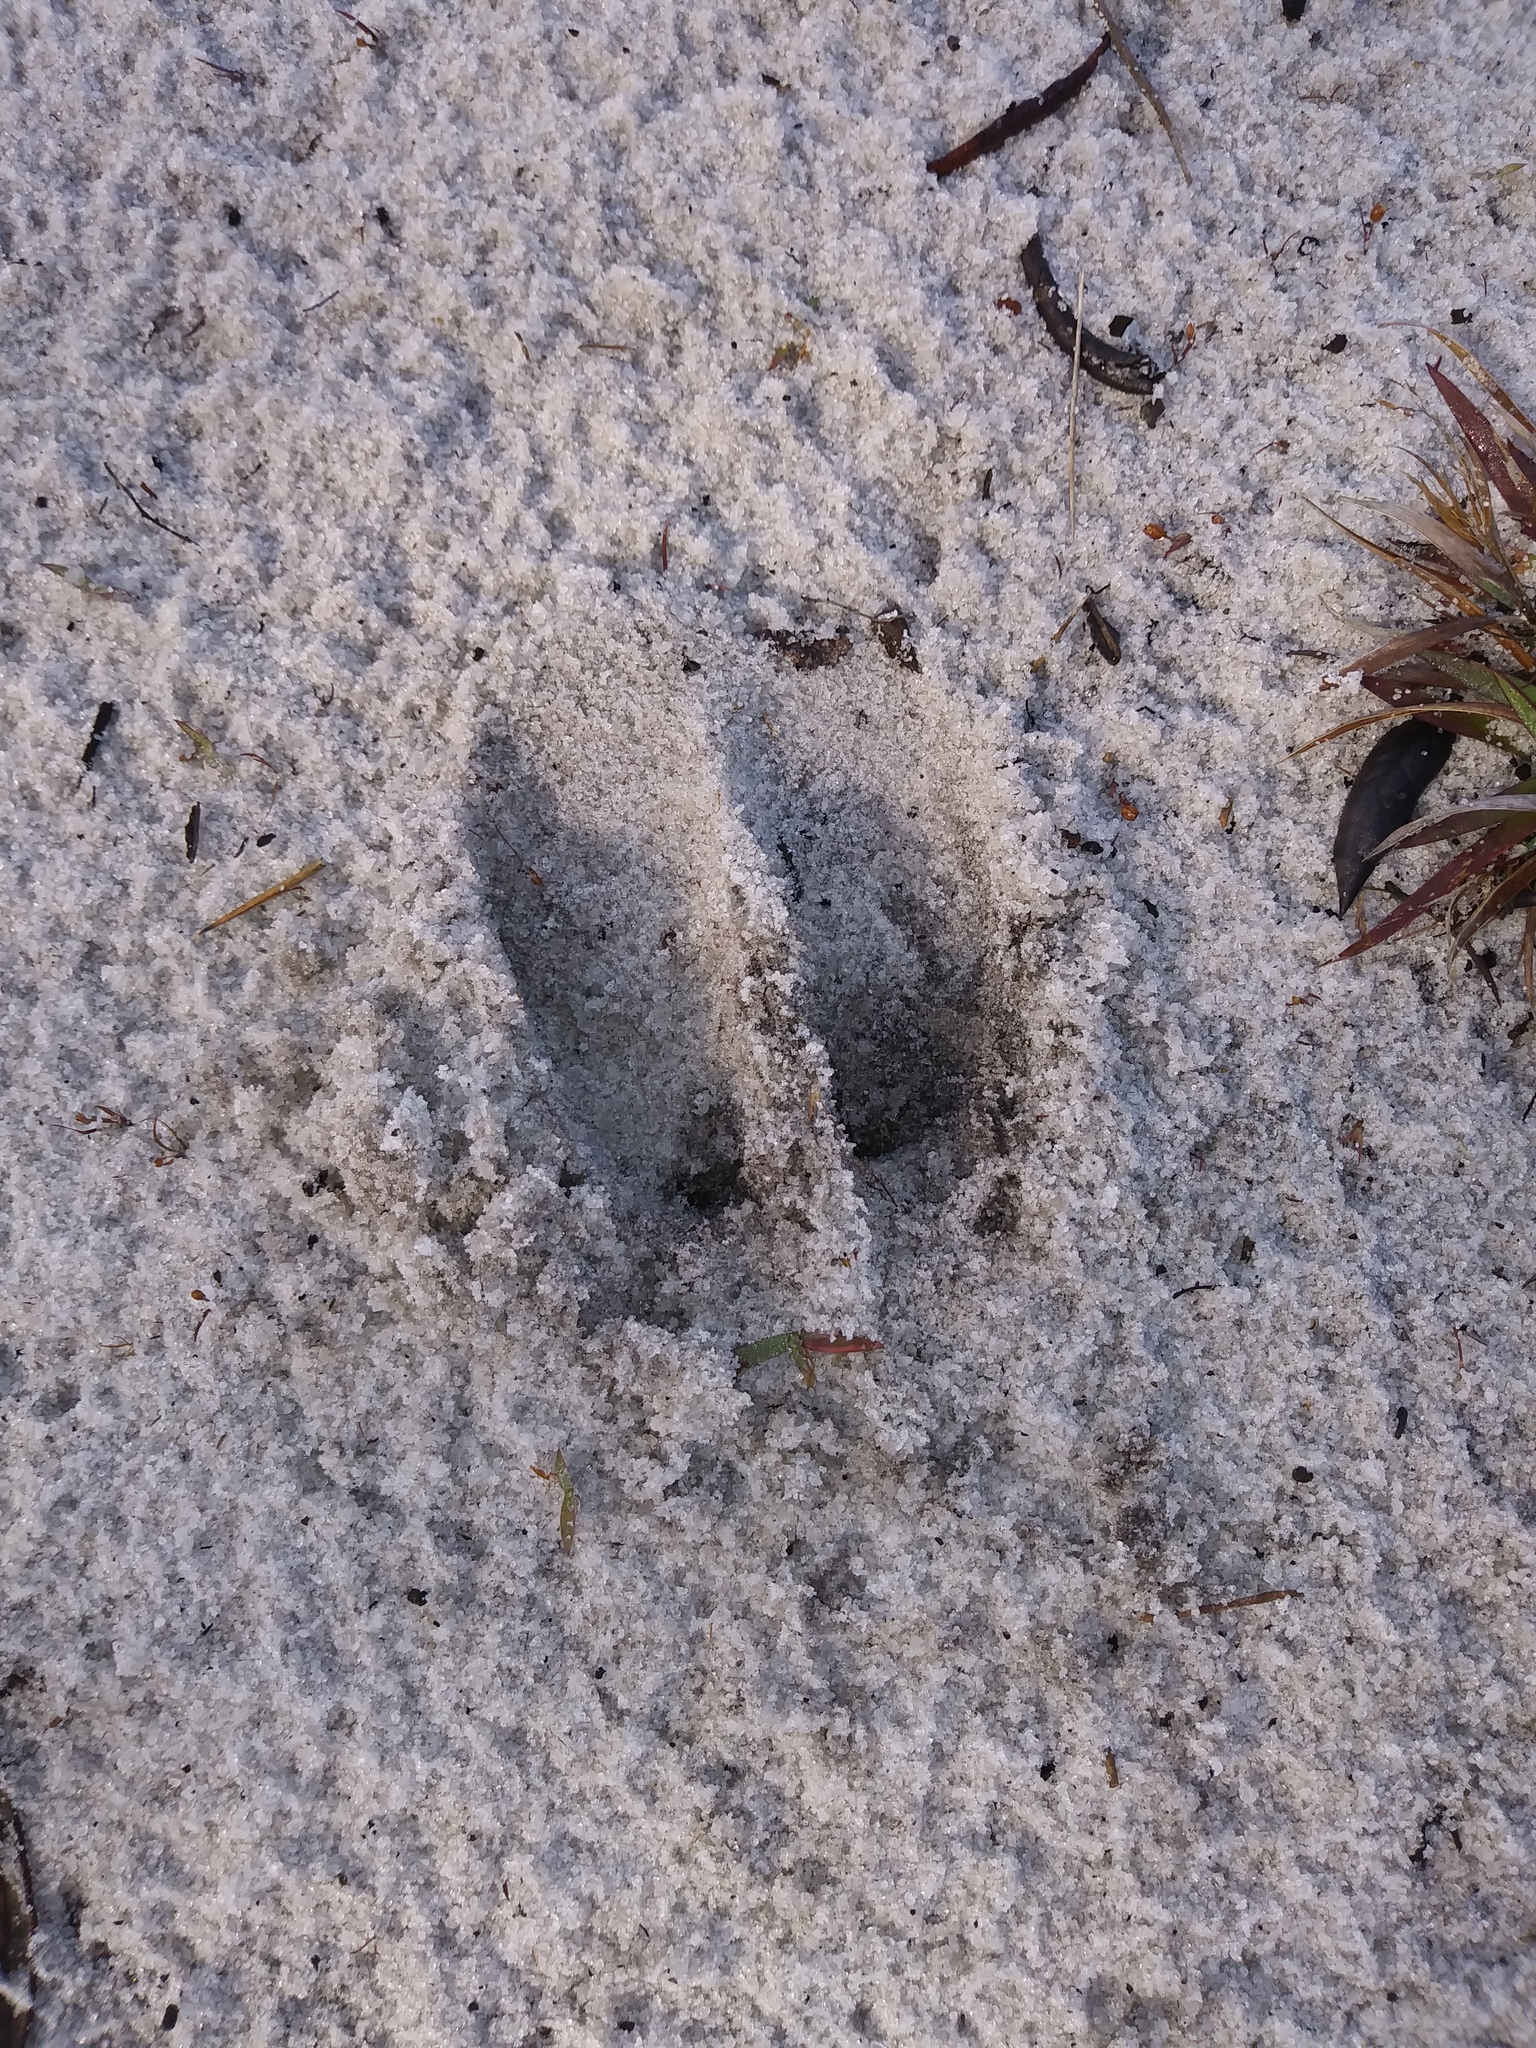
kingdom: Animalia
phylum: Chordata
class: Mammalia
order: Artiodactyla
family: Cervidae
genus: Odocoileus
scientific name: Odocoileus virginianus
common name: White-tailed deer
